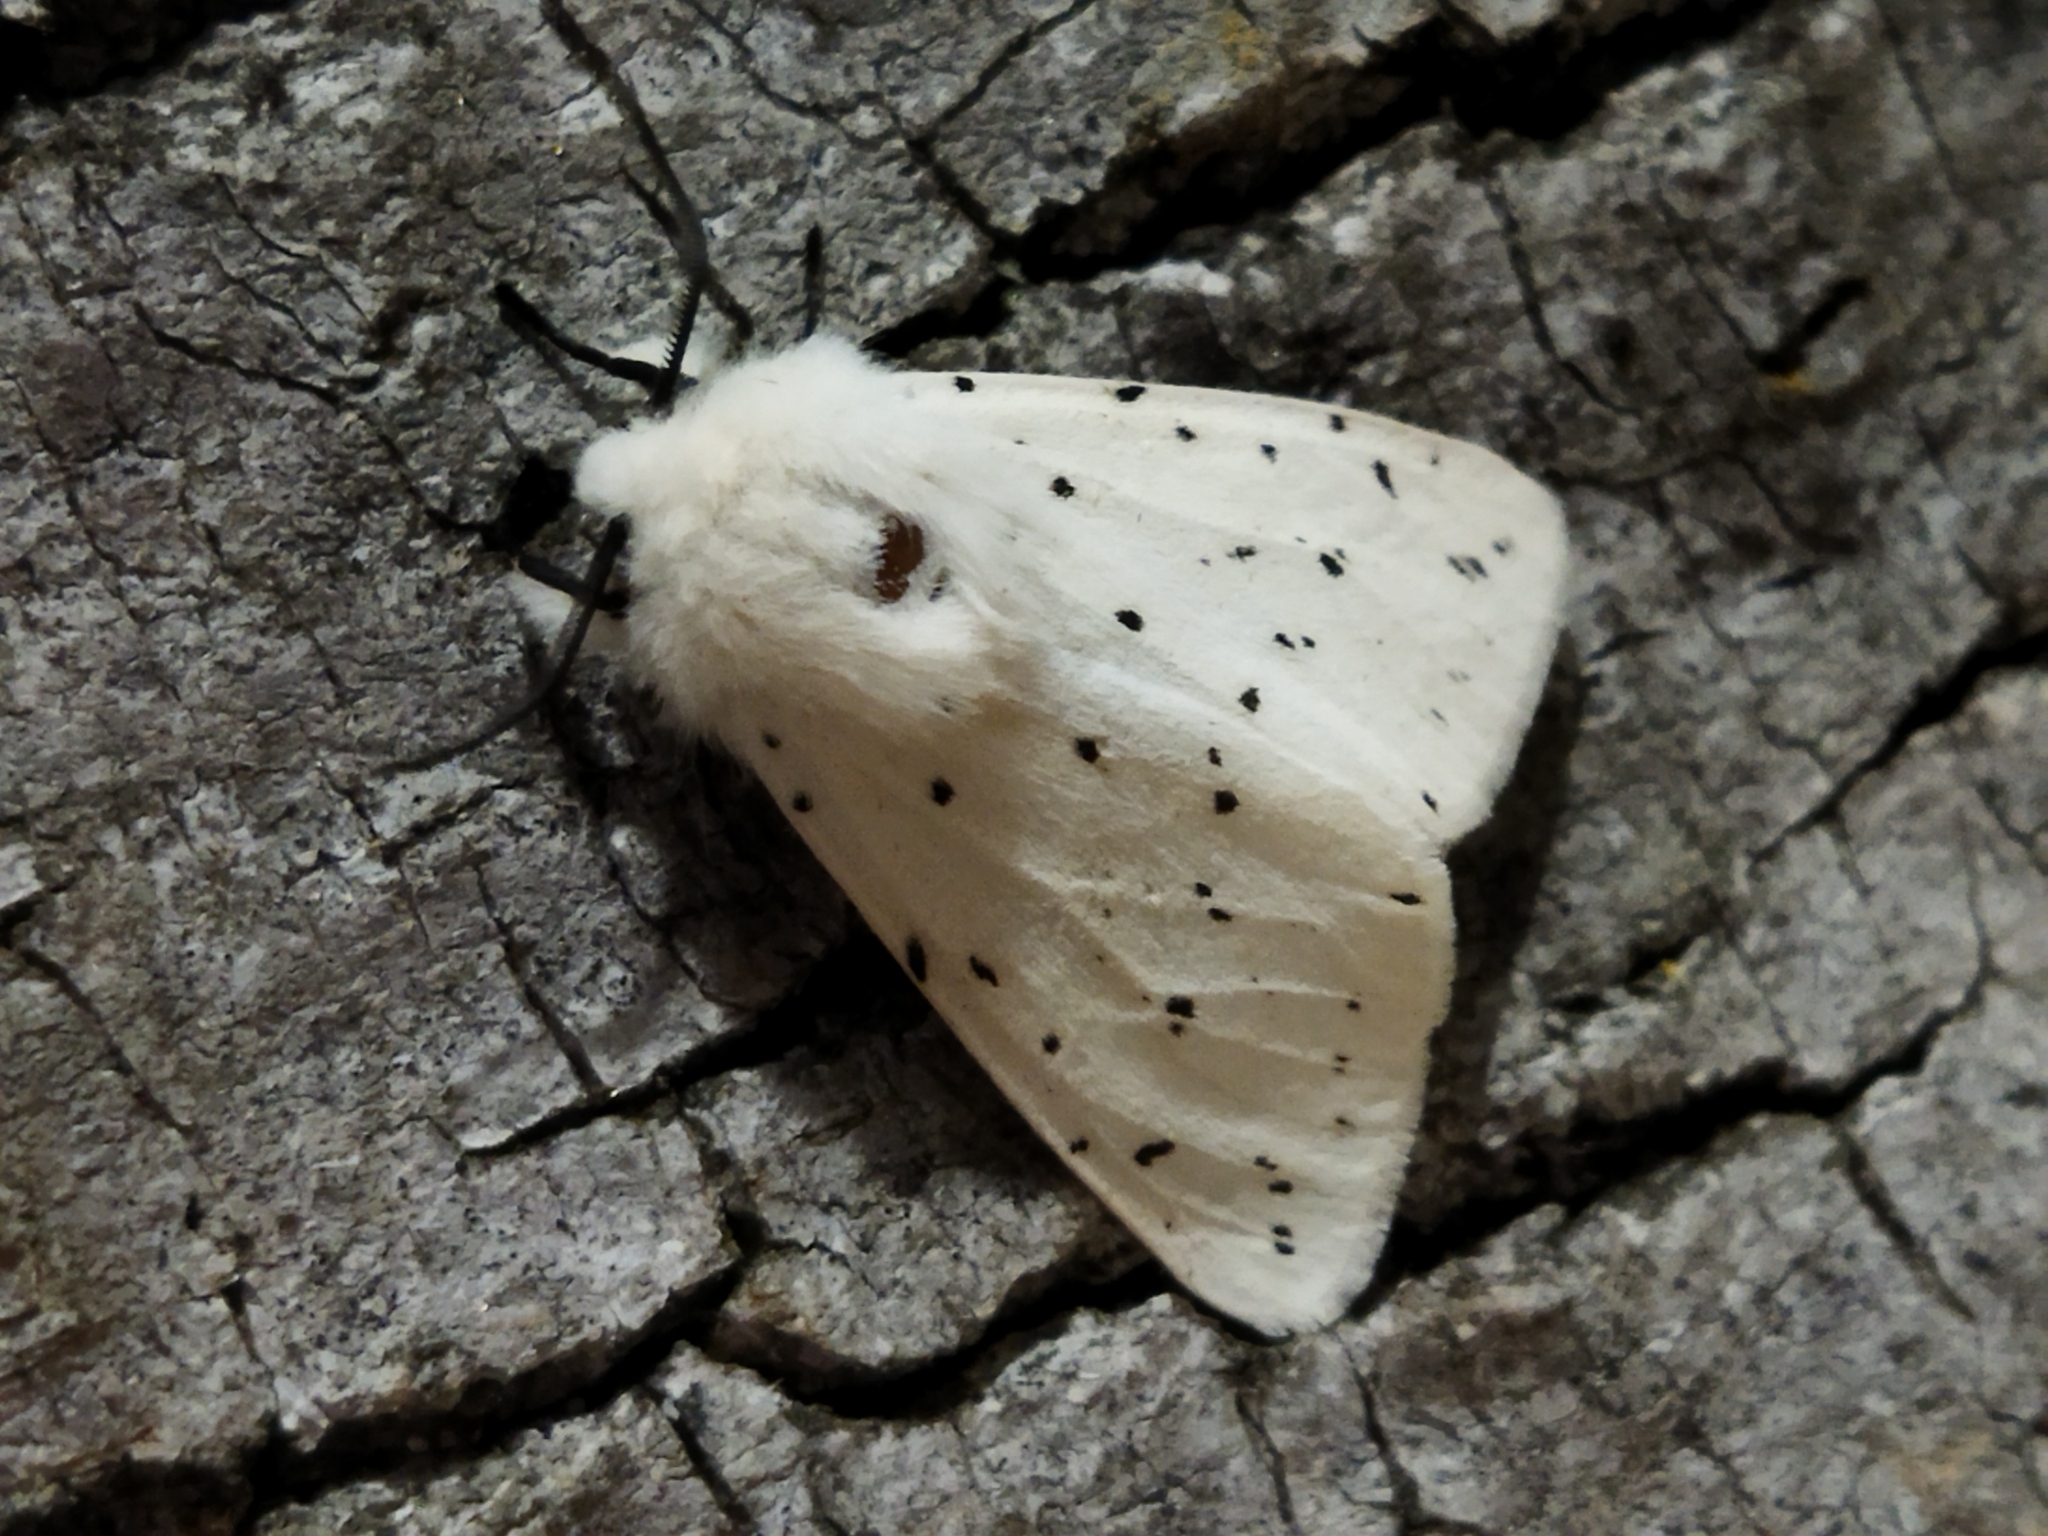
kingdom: Animalia
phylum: Arthropoda
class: Insecta
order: Lepidoptera
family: Erebidae
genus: Spilosoma
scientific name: Spilosoma lubricipeda
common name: White ermine
